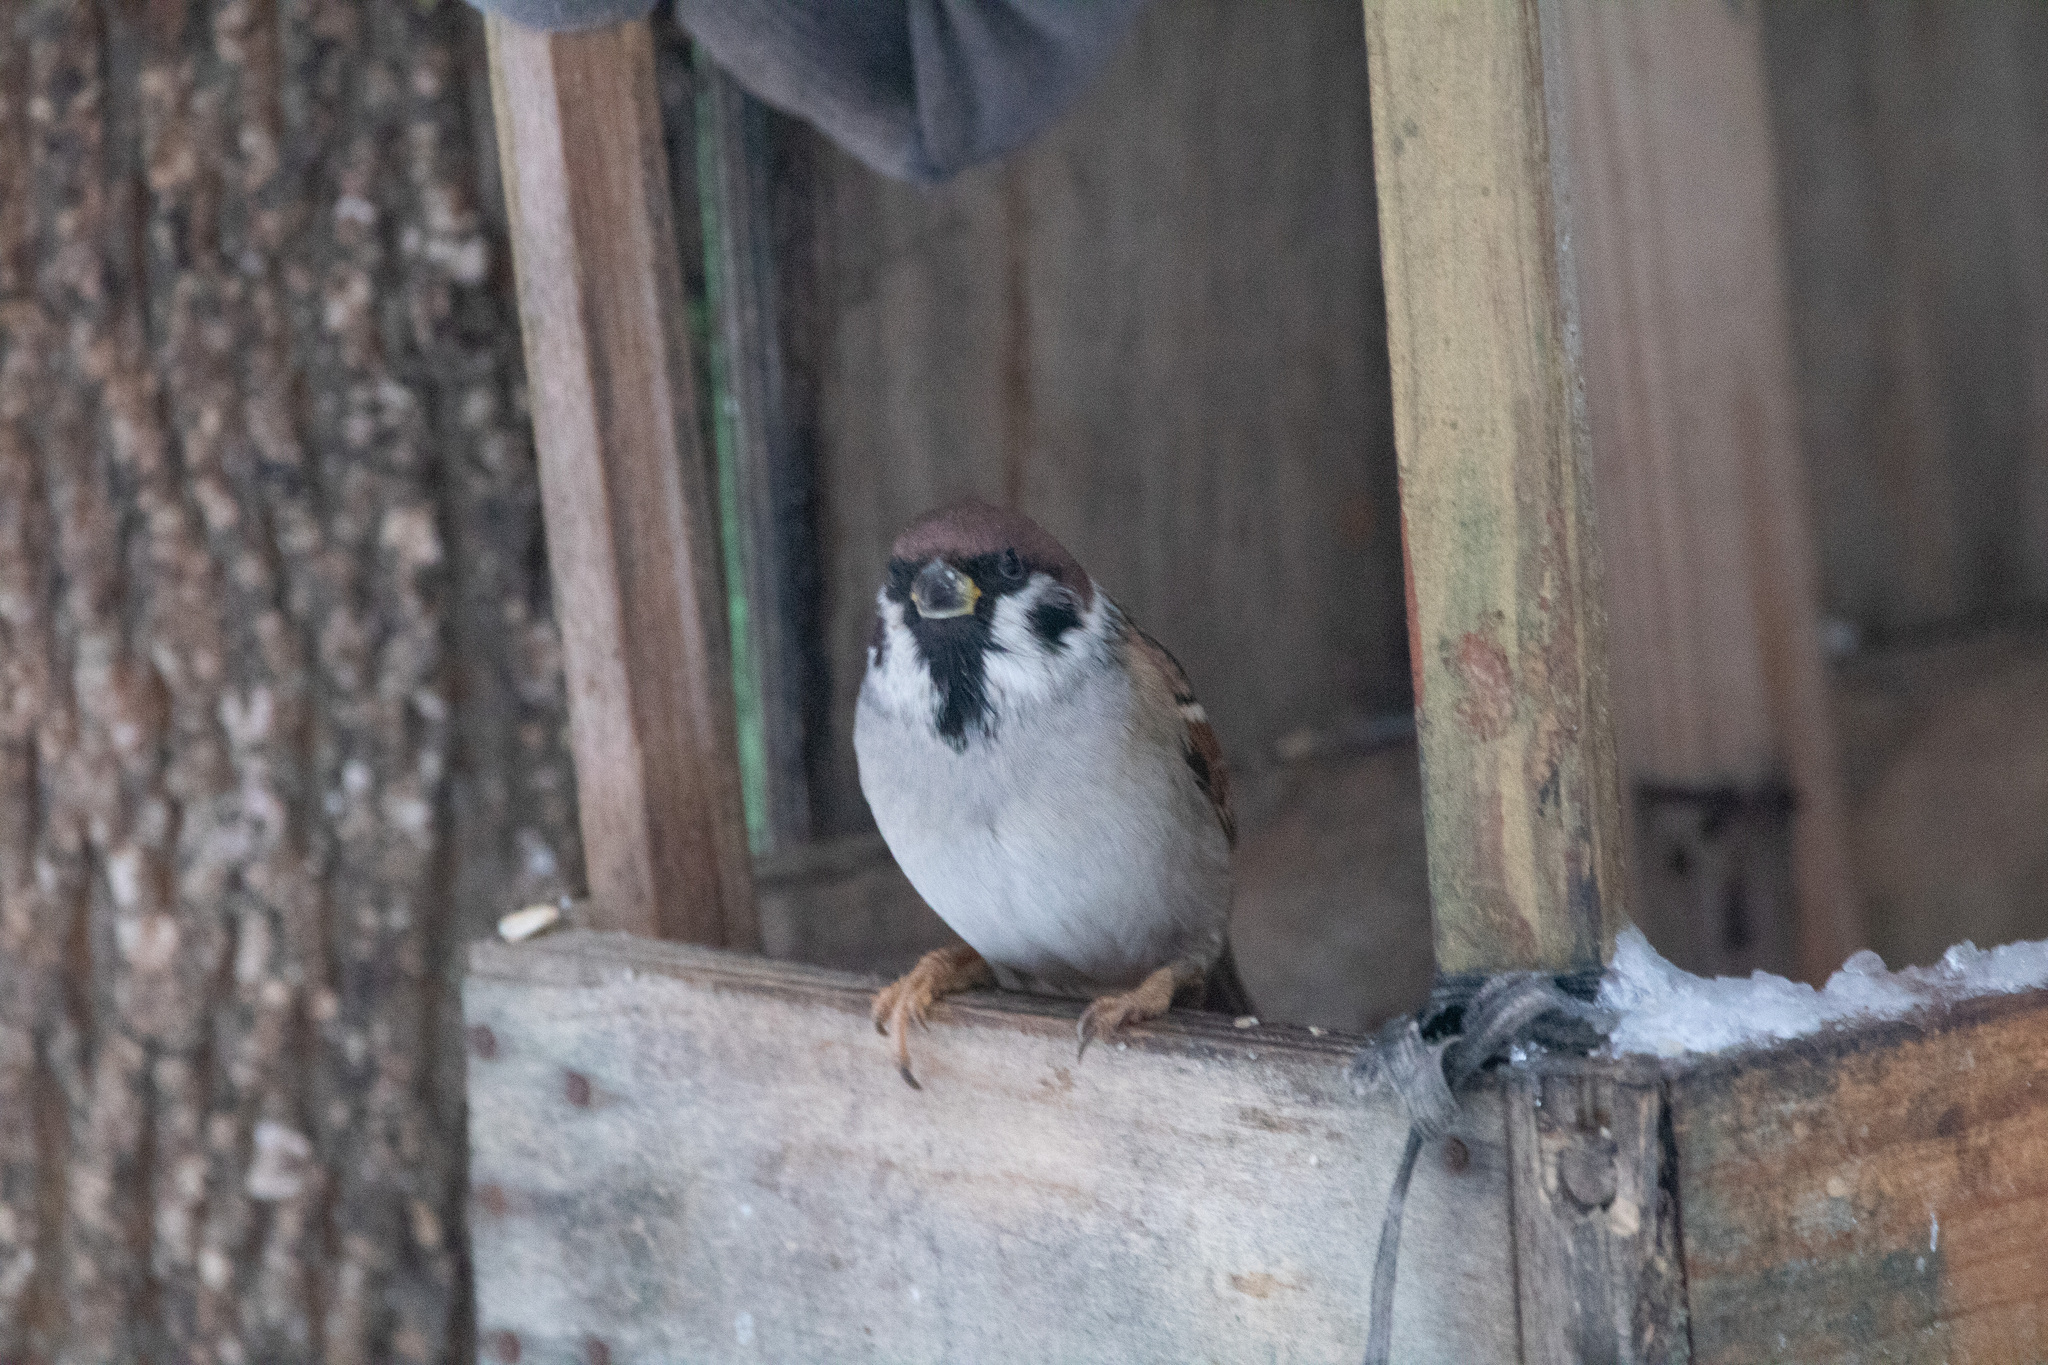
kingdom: Animalia
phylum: Chordata
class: Aves
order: Passeriformes
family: Passeridae
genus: Passer
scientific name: Passer montanus
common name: Eurasian tree sparrow
